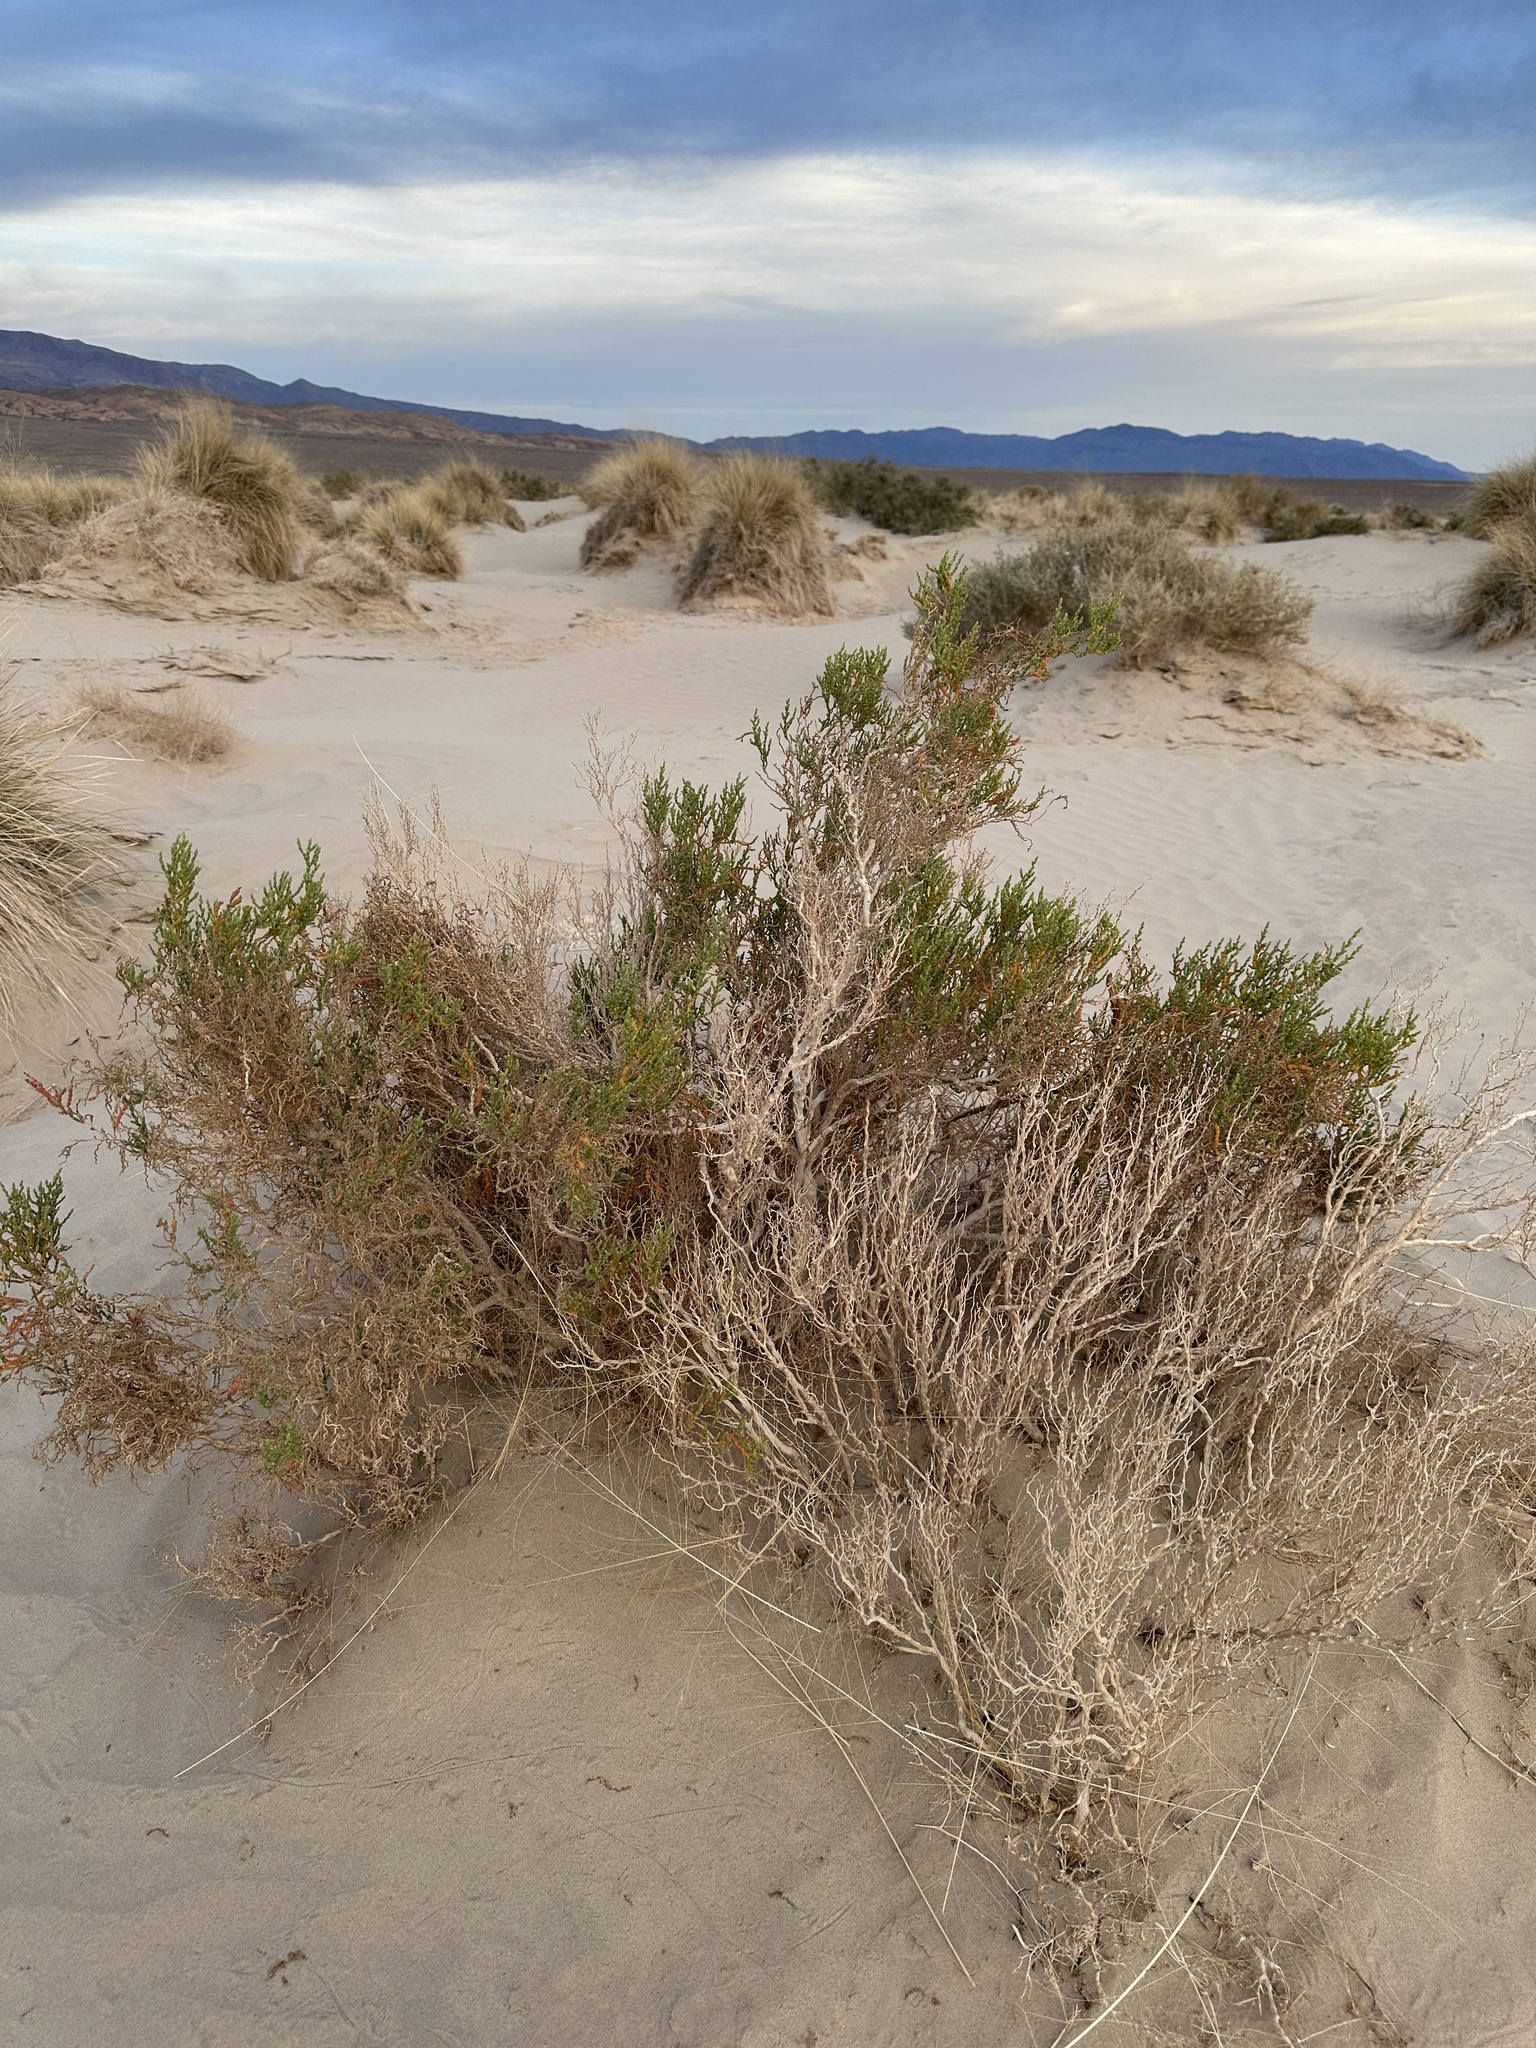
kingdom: Plantae
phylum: Tracheophyta
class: Magnoliopsida
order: Caryophyllales
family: Amaranthaceae
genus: Allenrolfea
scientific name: Allenrolfea occidentalis
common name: Iodine-bush
